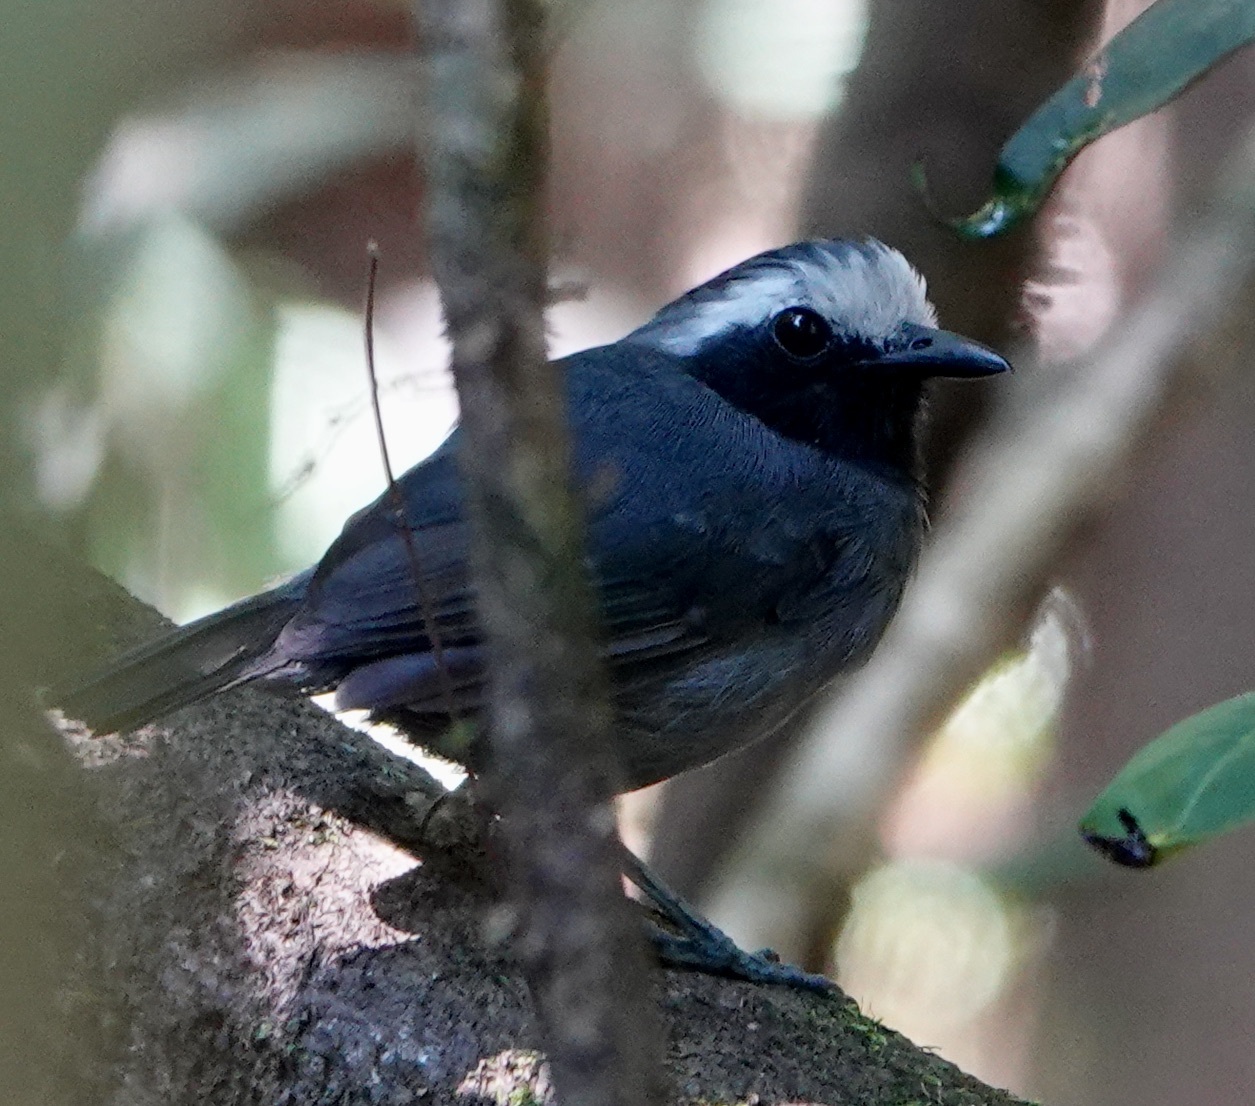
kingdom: Animalia
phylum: Chordata
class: Aves
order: Passeriformes
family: Thamnophilidae
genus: Myrmoborus
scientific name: Myrmoborus leucophrys
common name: White-browed antbird
